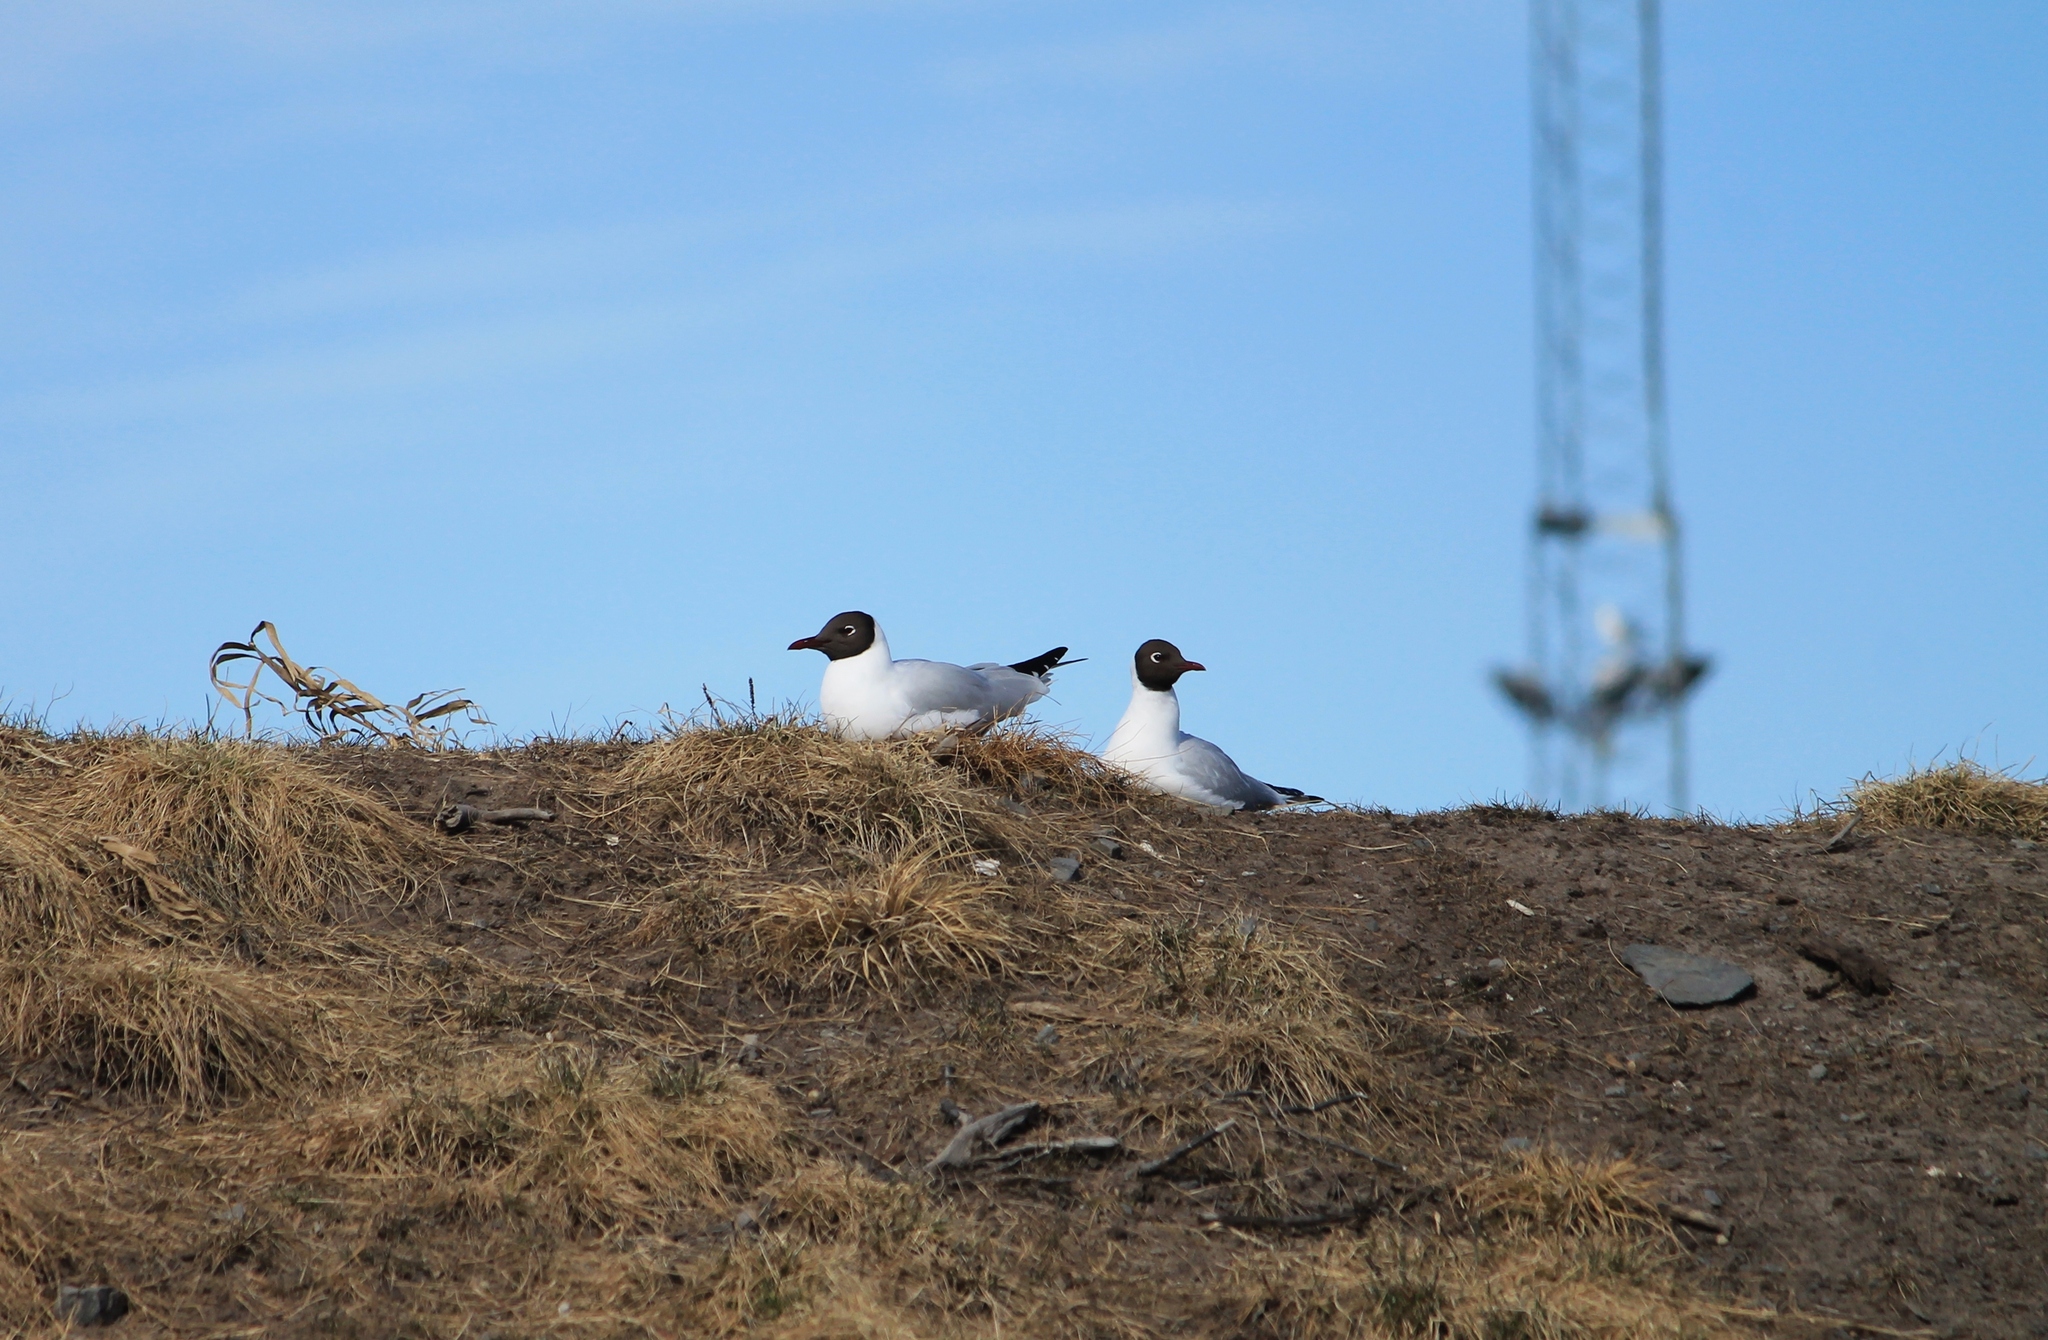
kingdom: Animalia
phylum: Chordata
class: Aves
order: Charadriiformes
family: Laridae
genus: Chroicocephalus
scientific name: Chroicocephalus ridibundus
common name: Black-headed gull
